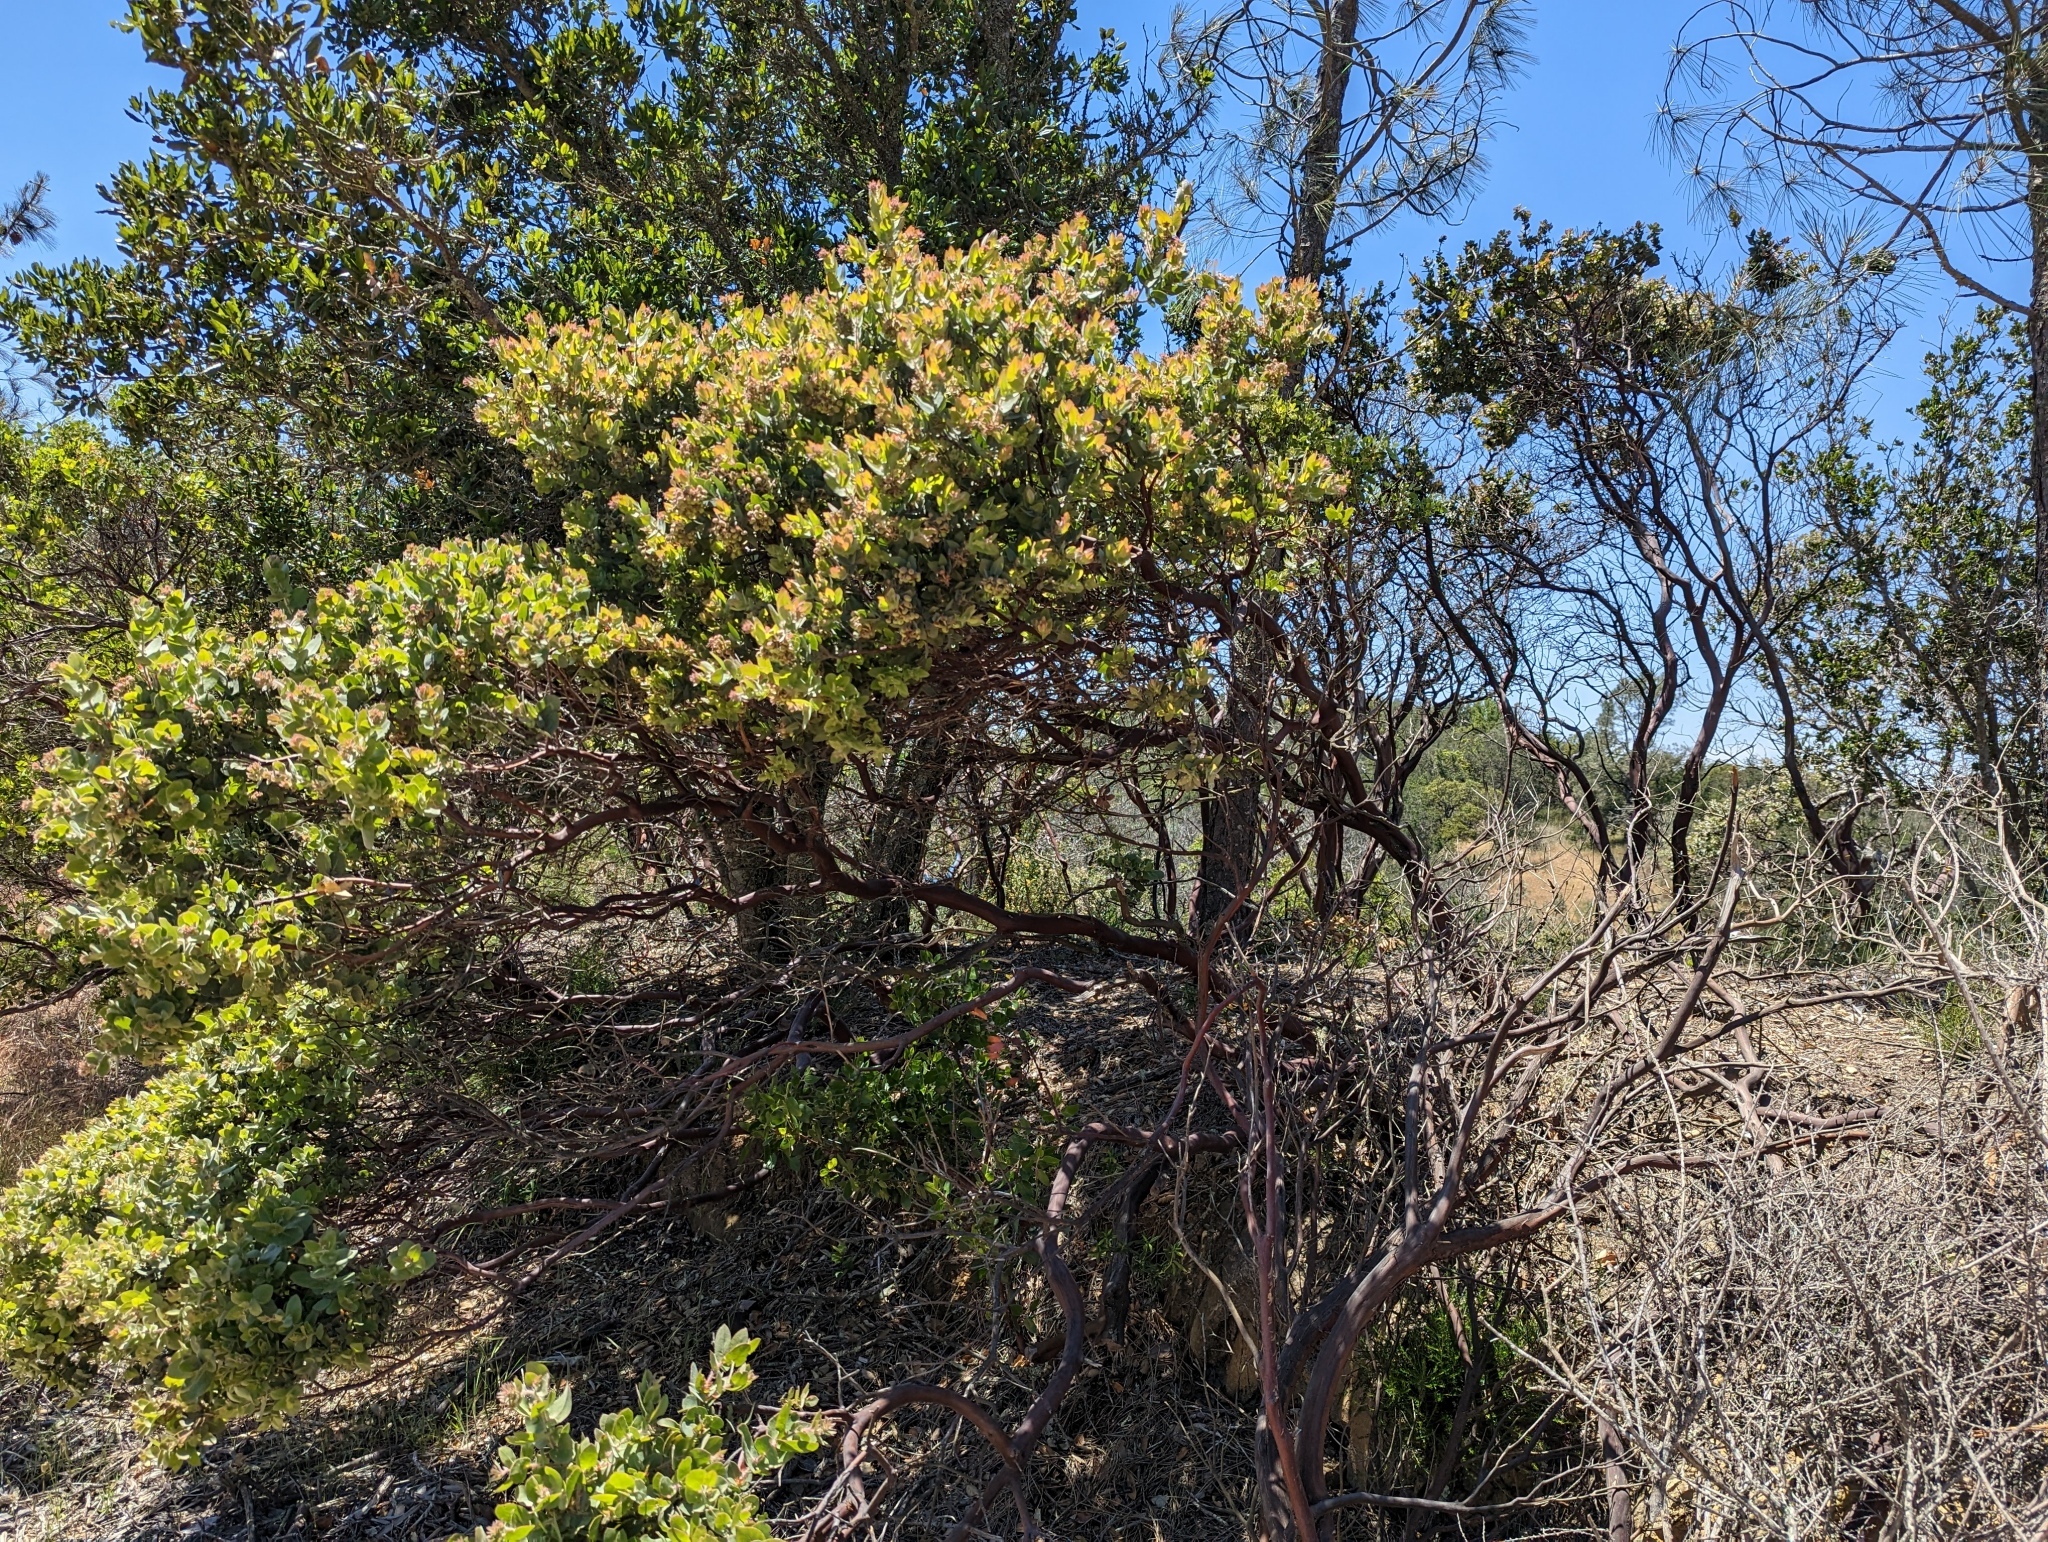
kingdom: Plantae
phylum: Tracheophyta
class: Magnoliopsida
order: Ericales
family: Ericaceae
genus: Arctostaphylos
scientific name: Arctostaphylos auriculata
